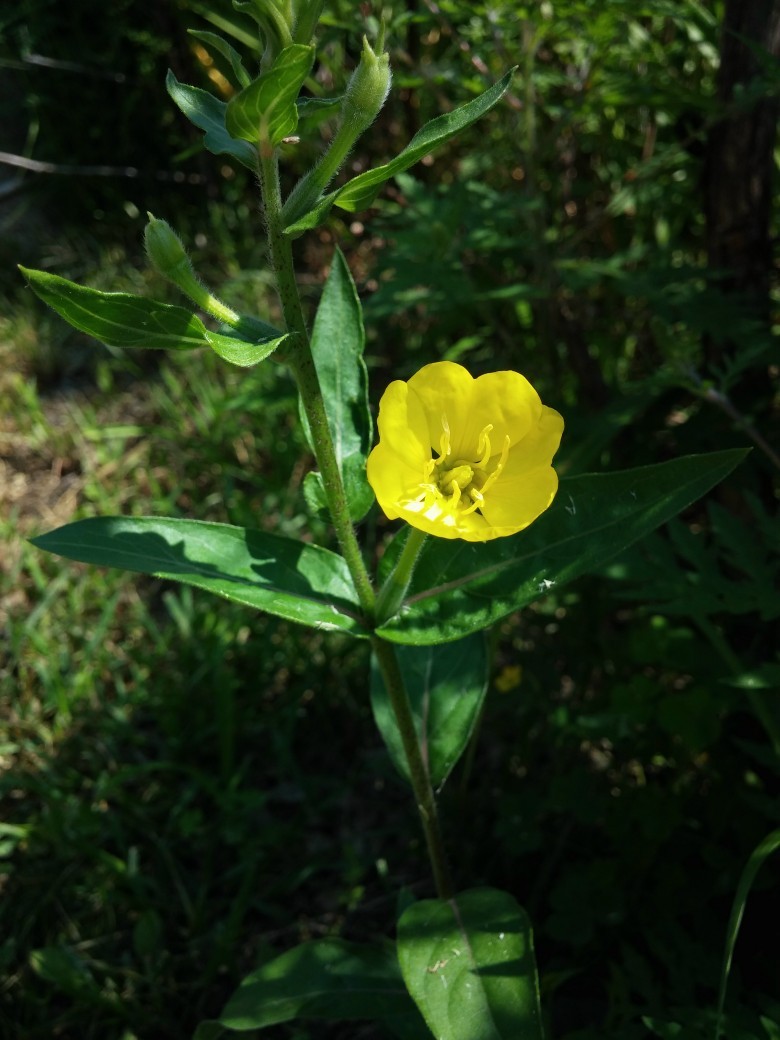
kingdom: Plantae
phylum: Tracheophyta
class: Magnoliopsida
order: Myrtales
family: Onagraceae
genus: Oenothera
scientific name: Oenothera
